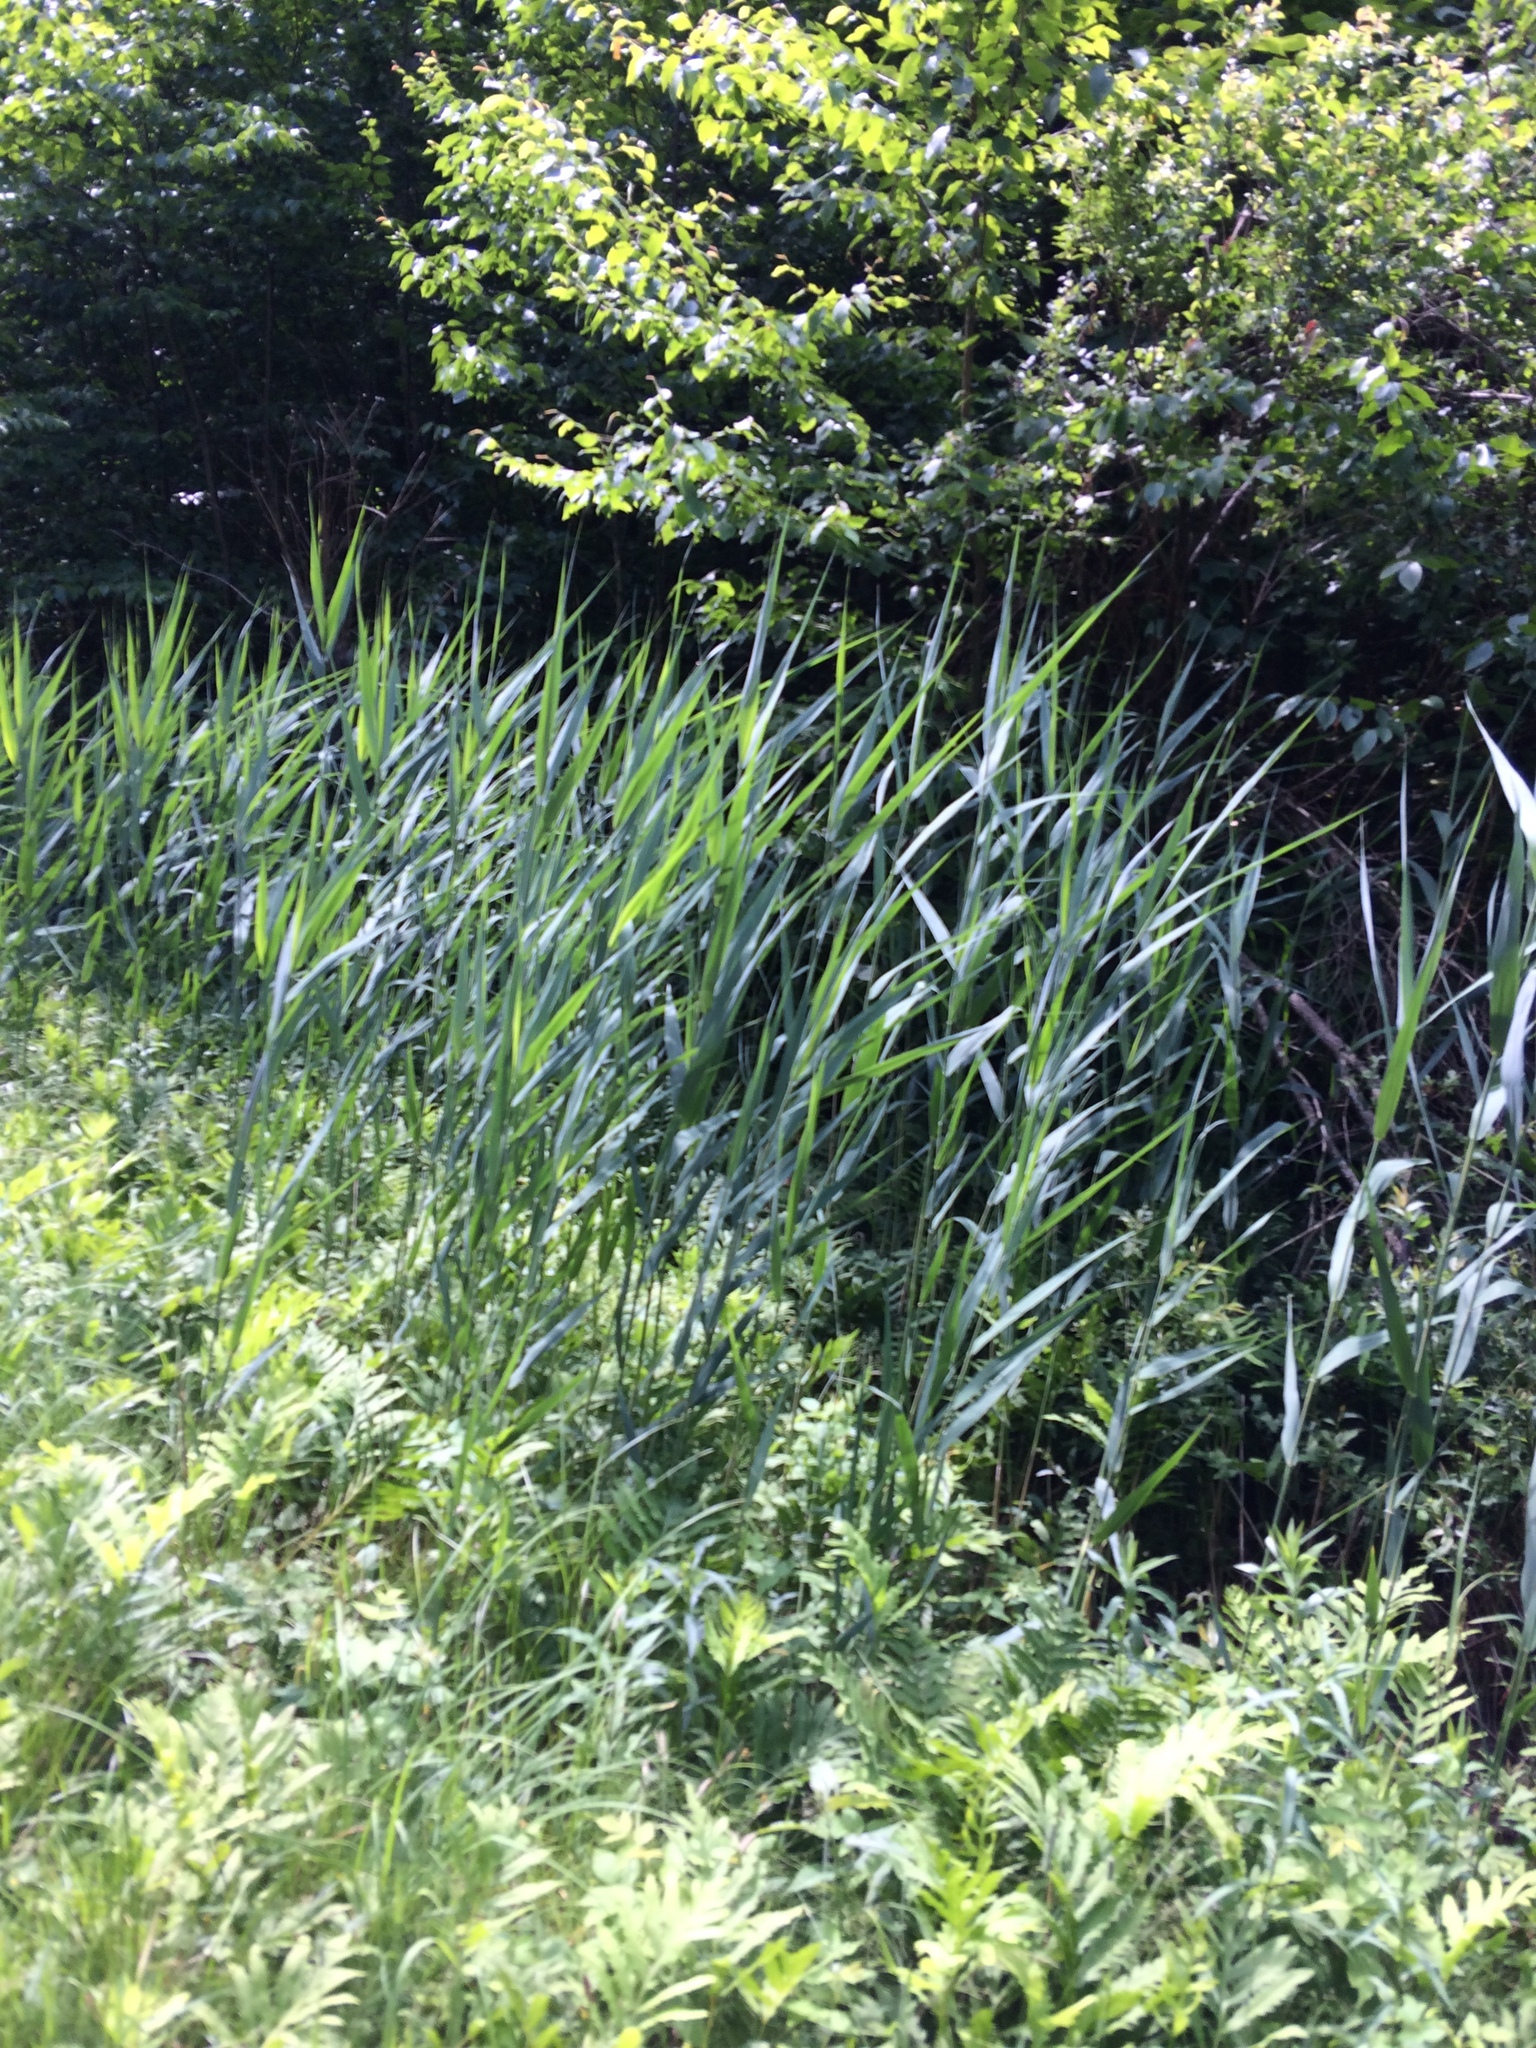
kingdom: Plantae
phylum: Tracheophyta
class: Liliopsida
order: Poales
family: Poaceae
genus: Phragmites
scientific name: Phragmites australis
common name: Common reed
